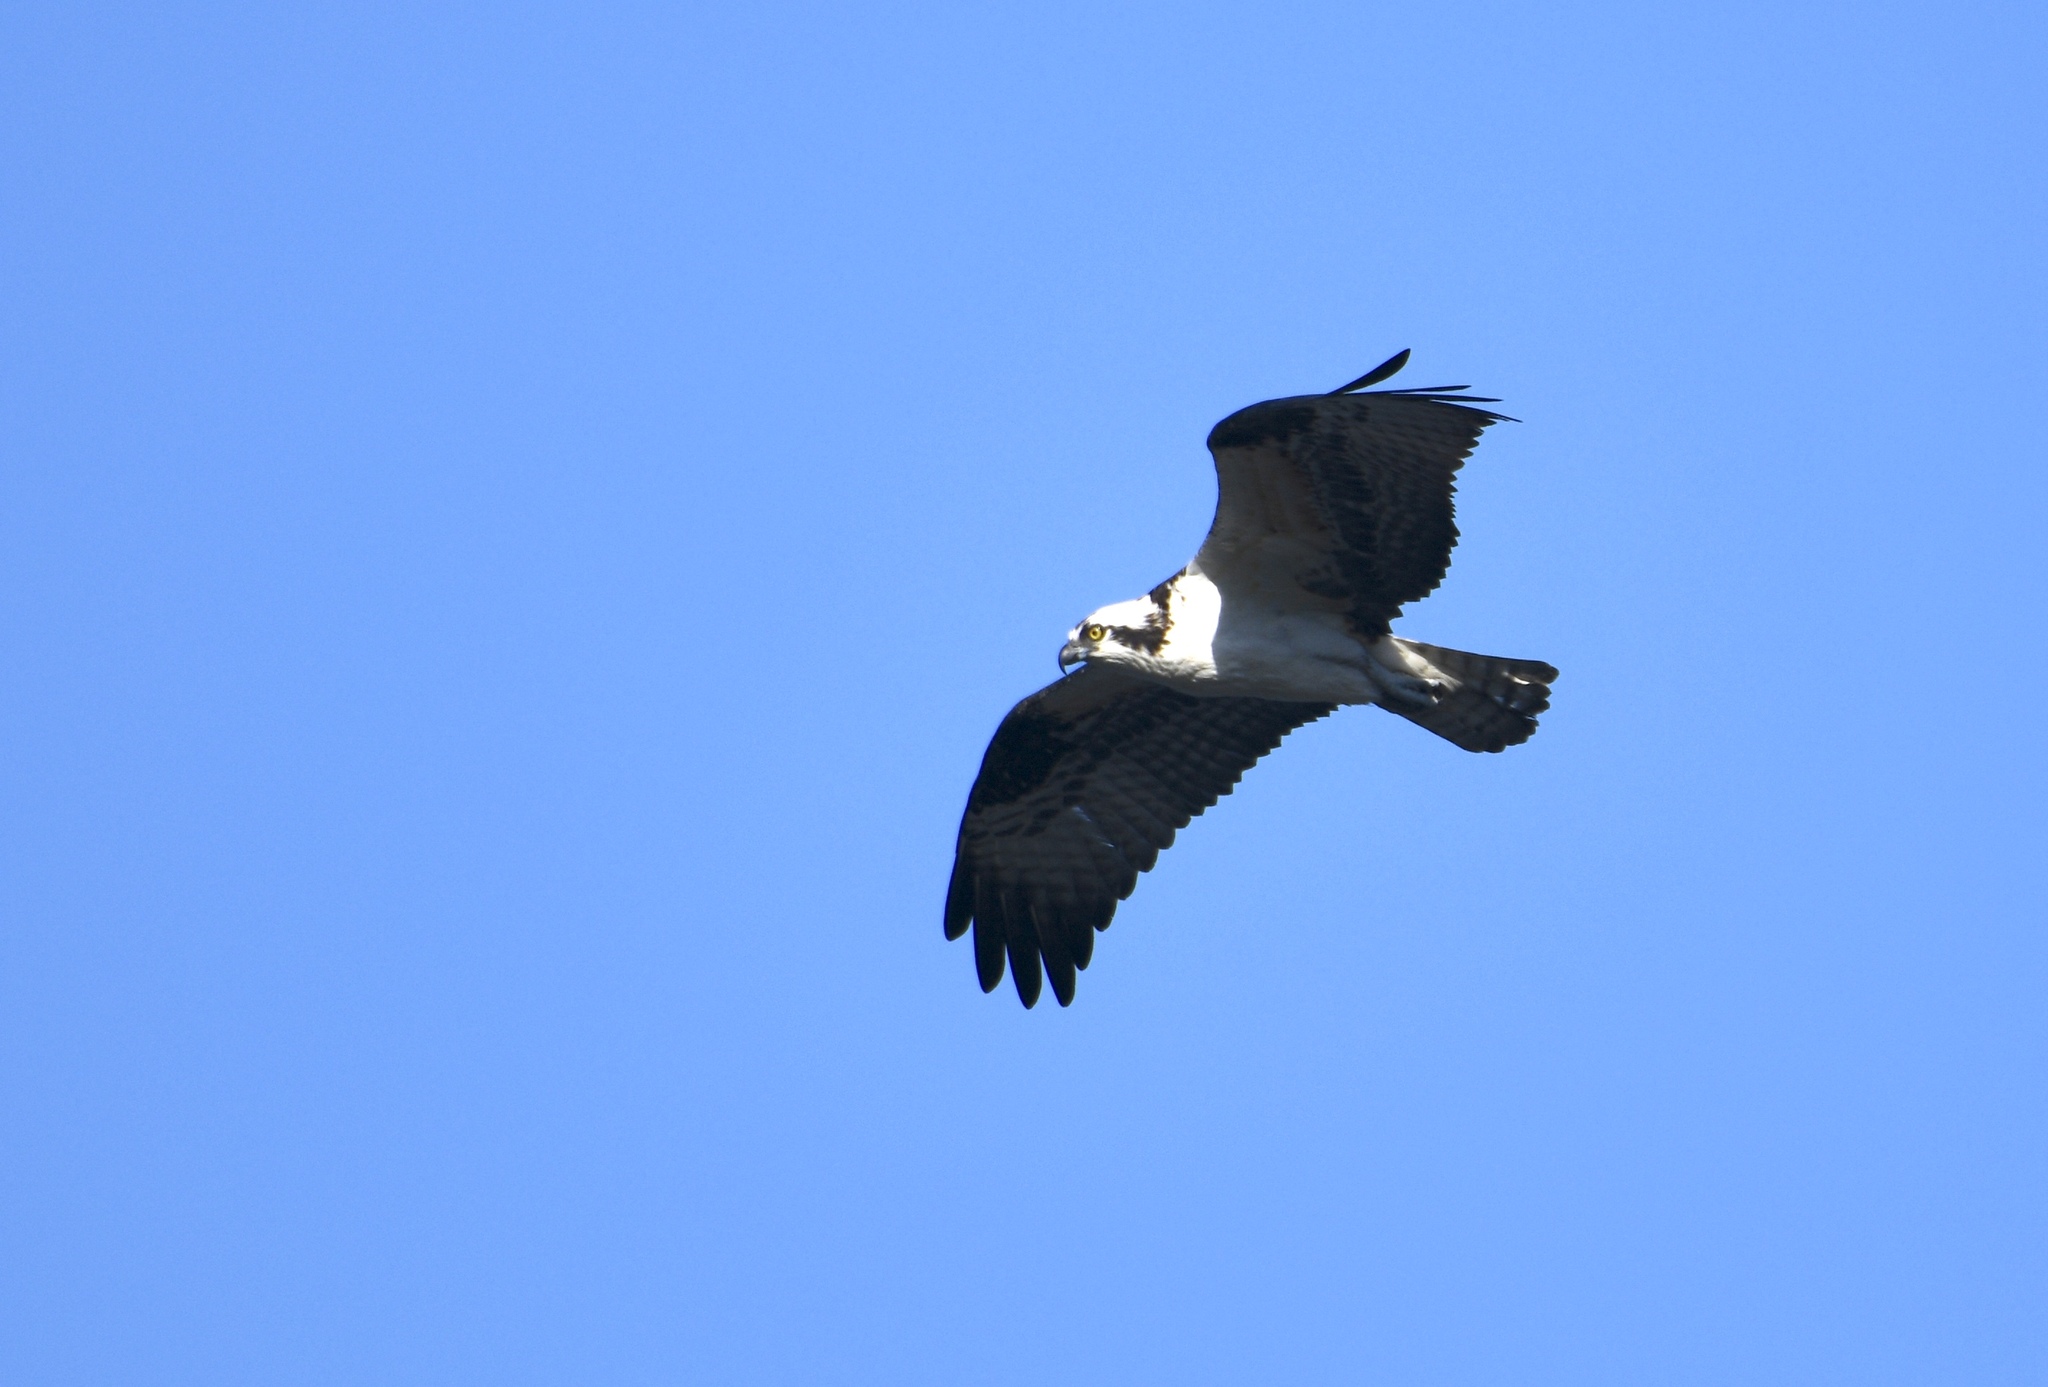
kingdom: Animalia
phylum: Chordata
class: Aves
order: Accipitriformes
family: Pandionidae
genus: Pandion
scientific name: Pandion haliaetus
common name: Osprey
